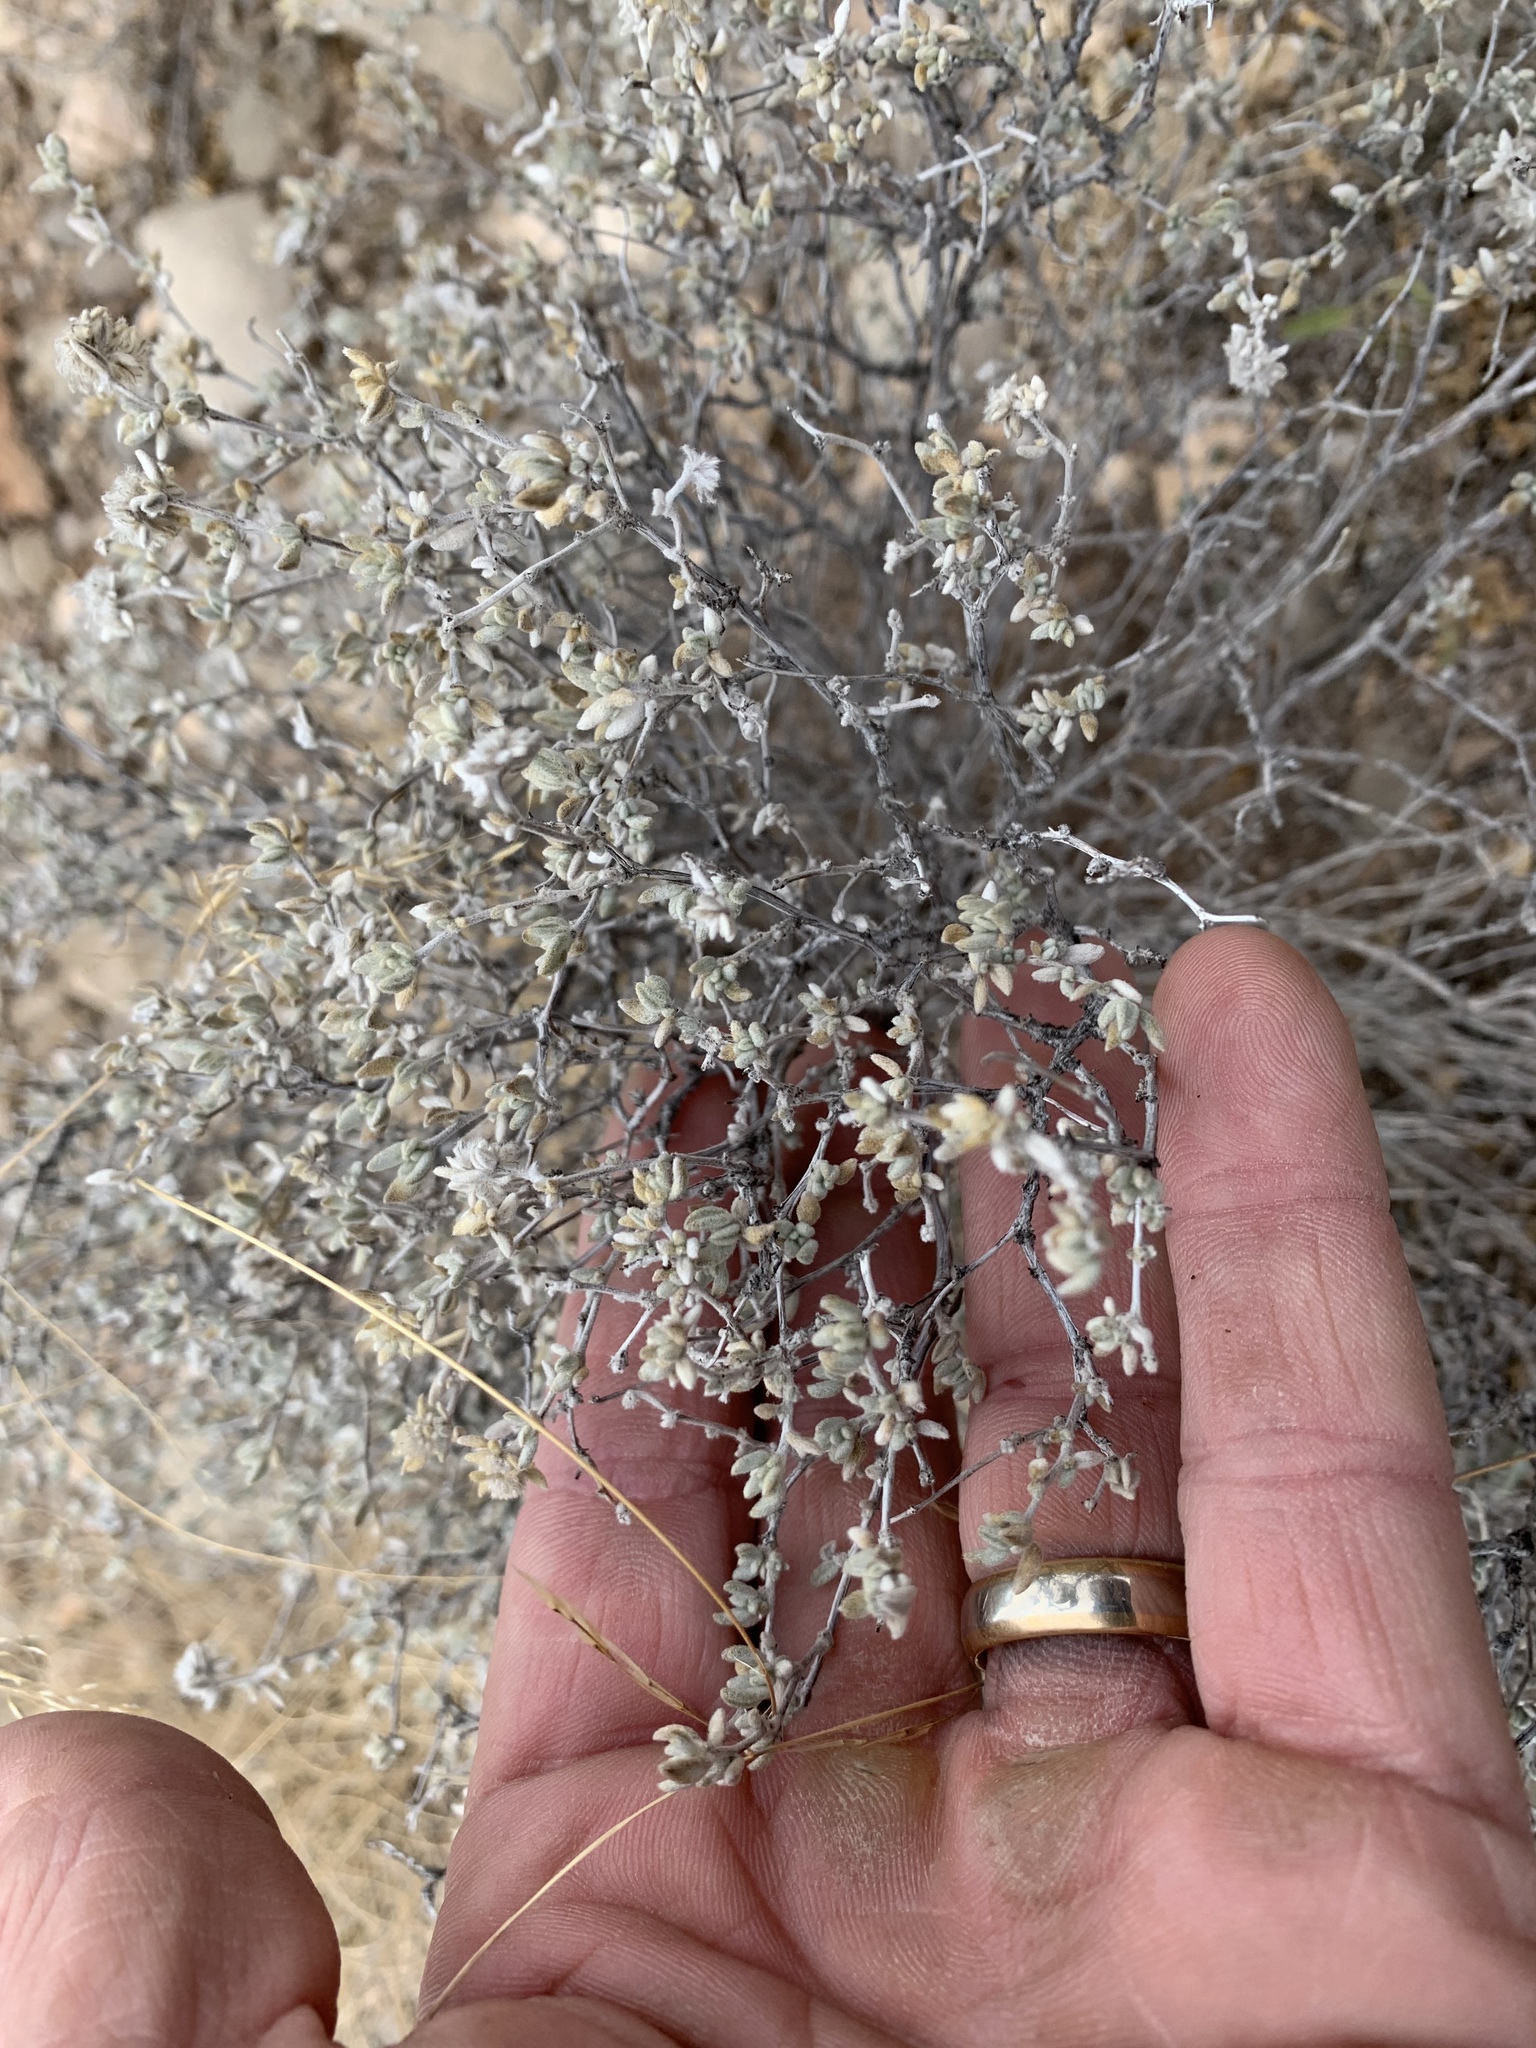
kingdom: Plantae
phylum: Tracheophyta
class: Magnoliopsida
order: Boraginales
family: Ehretiaceae
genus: Tiquilia
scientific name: Tiquilia greggii
